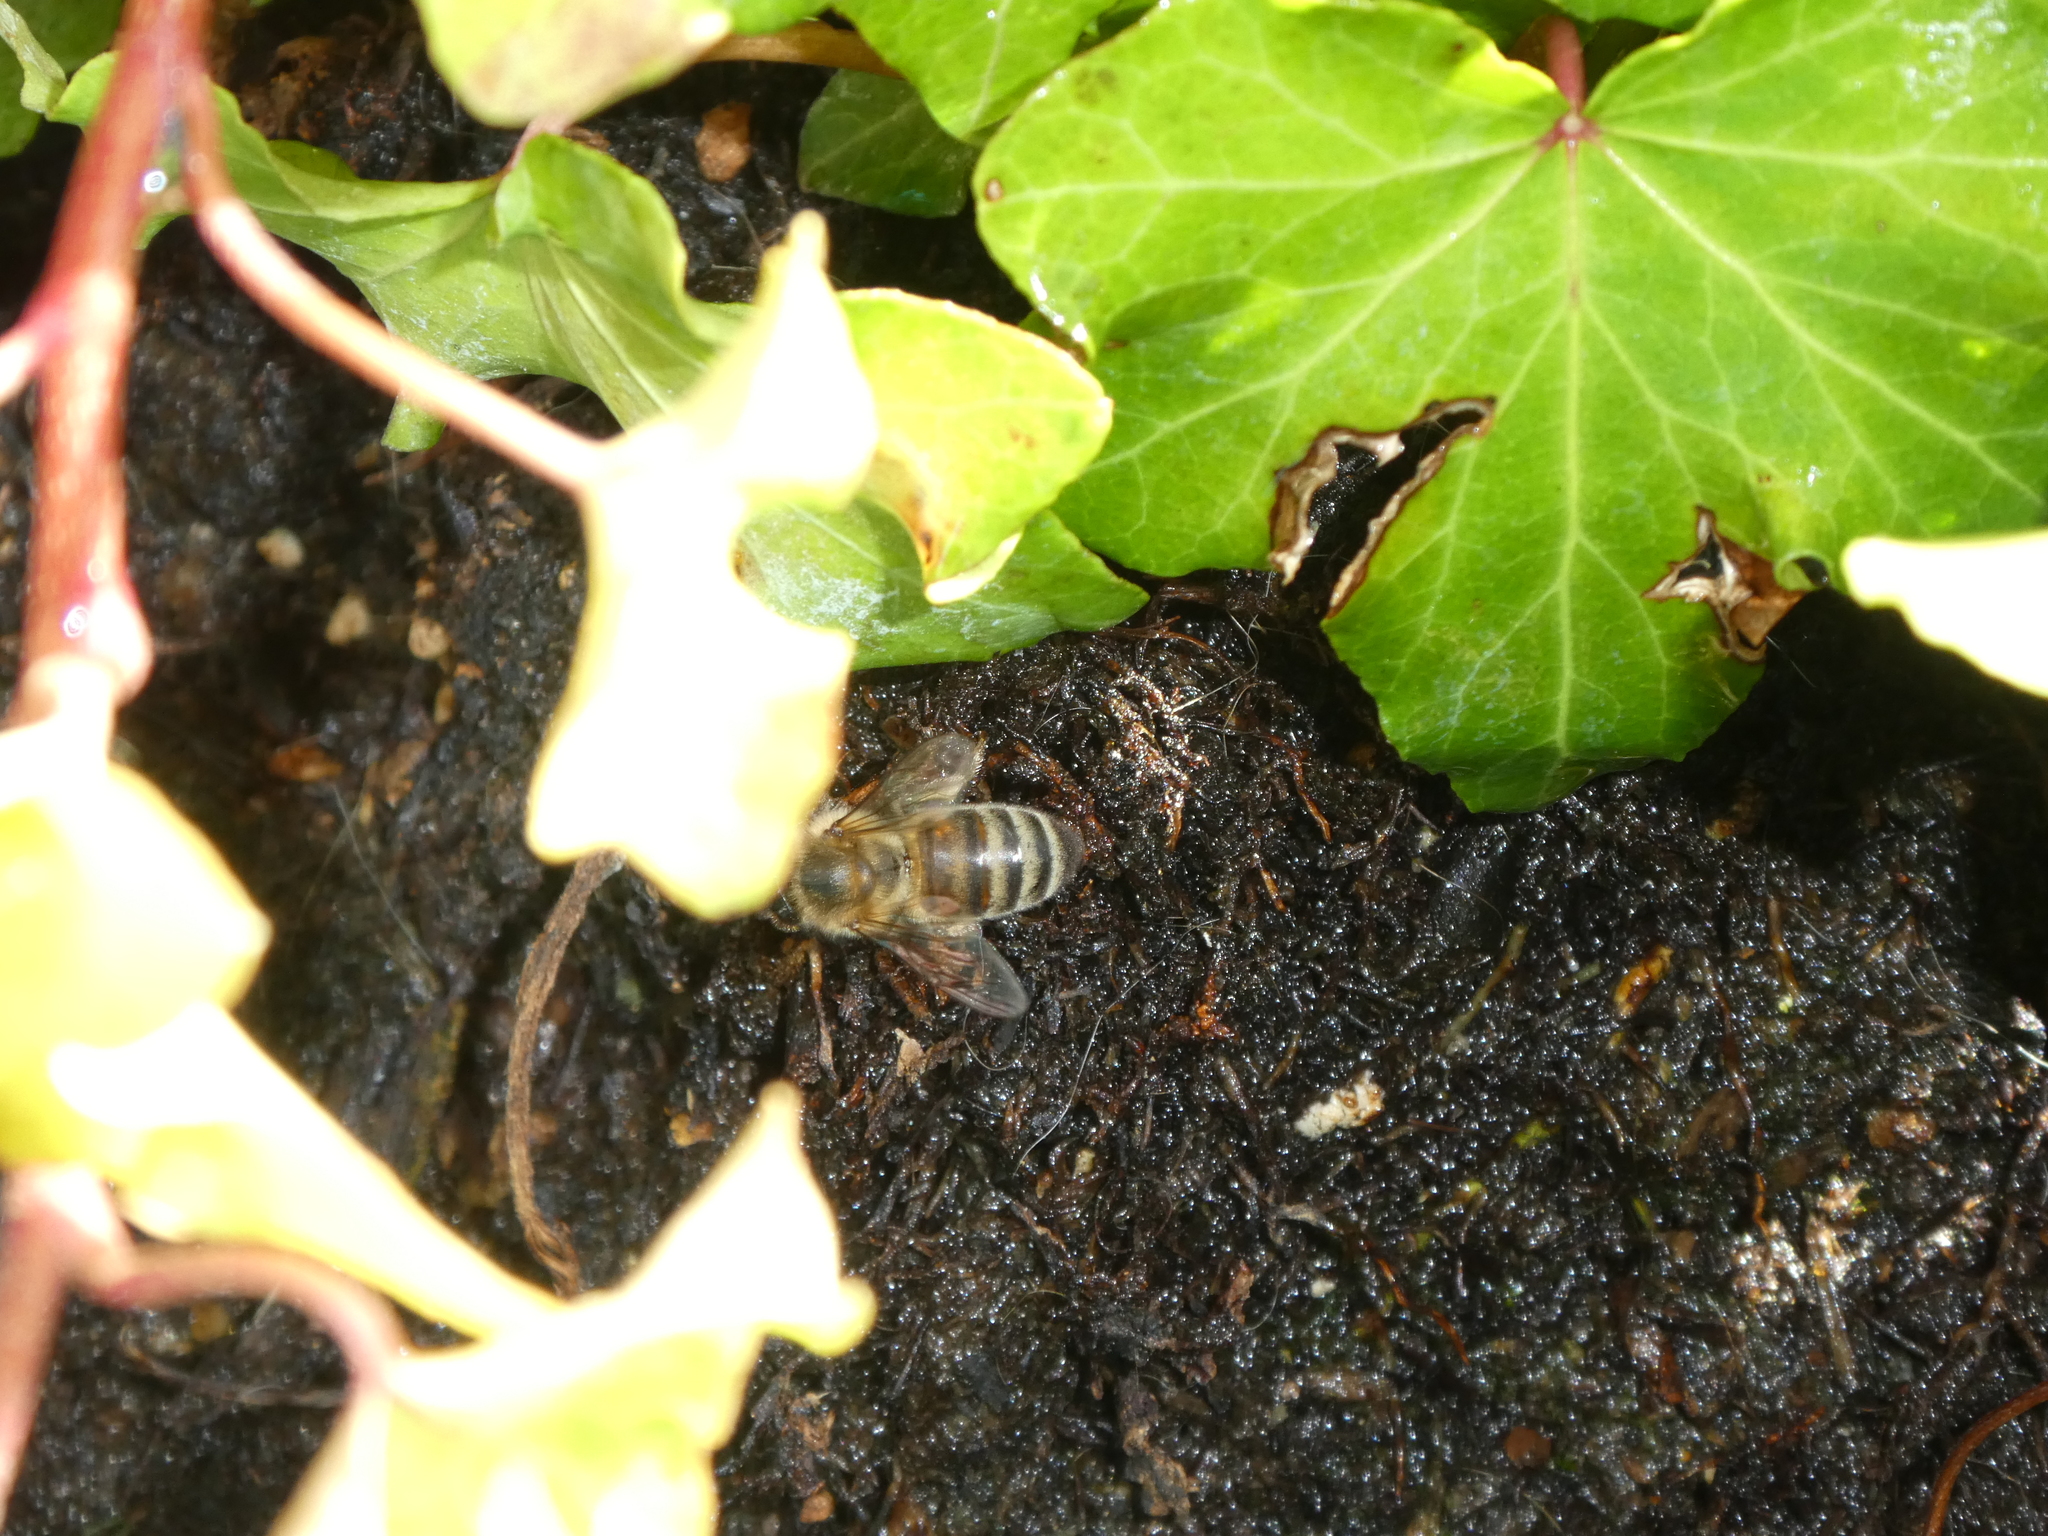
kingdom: Animalia
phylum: Arthropoda
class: Insecta
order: Hymenoptera
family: Apidae
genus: Apis
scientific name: Apis mellifera
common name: Honey bee
